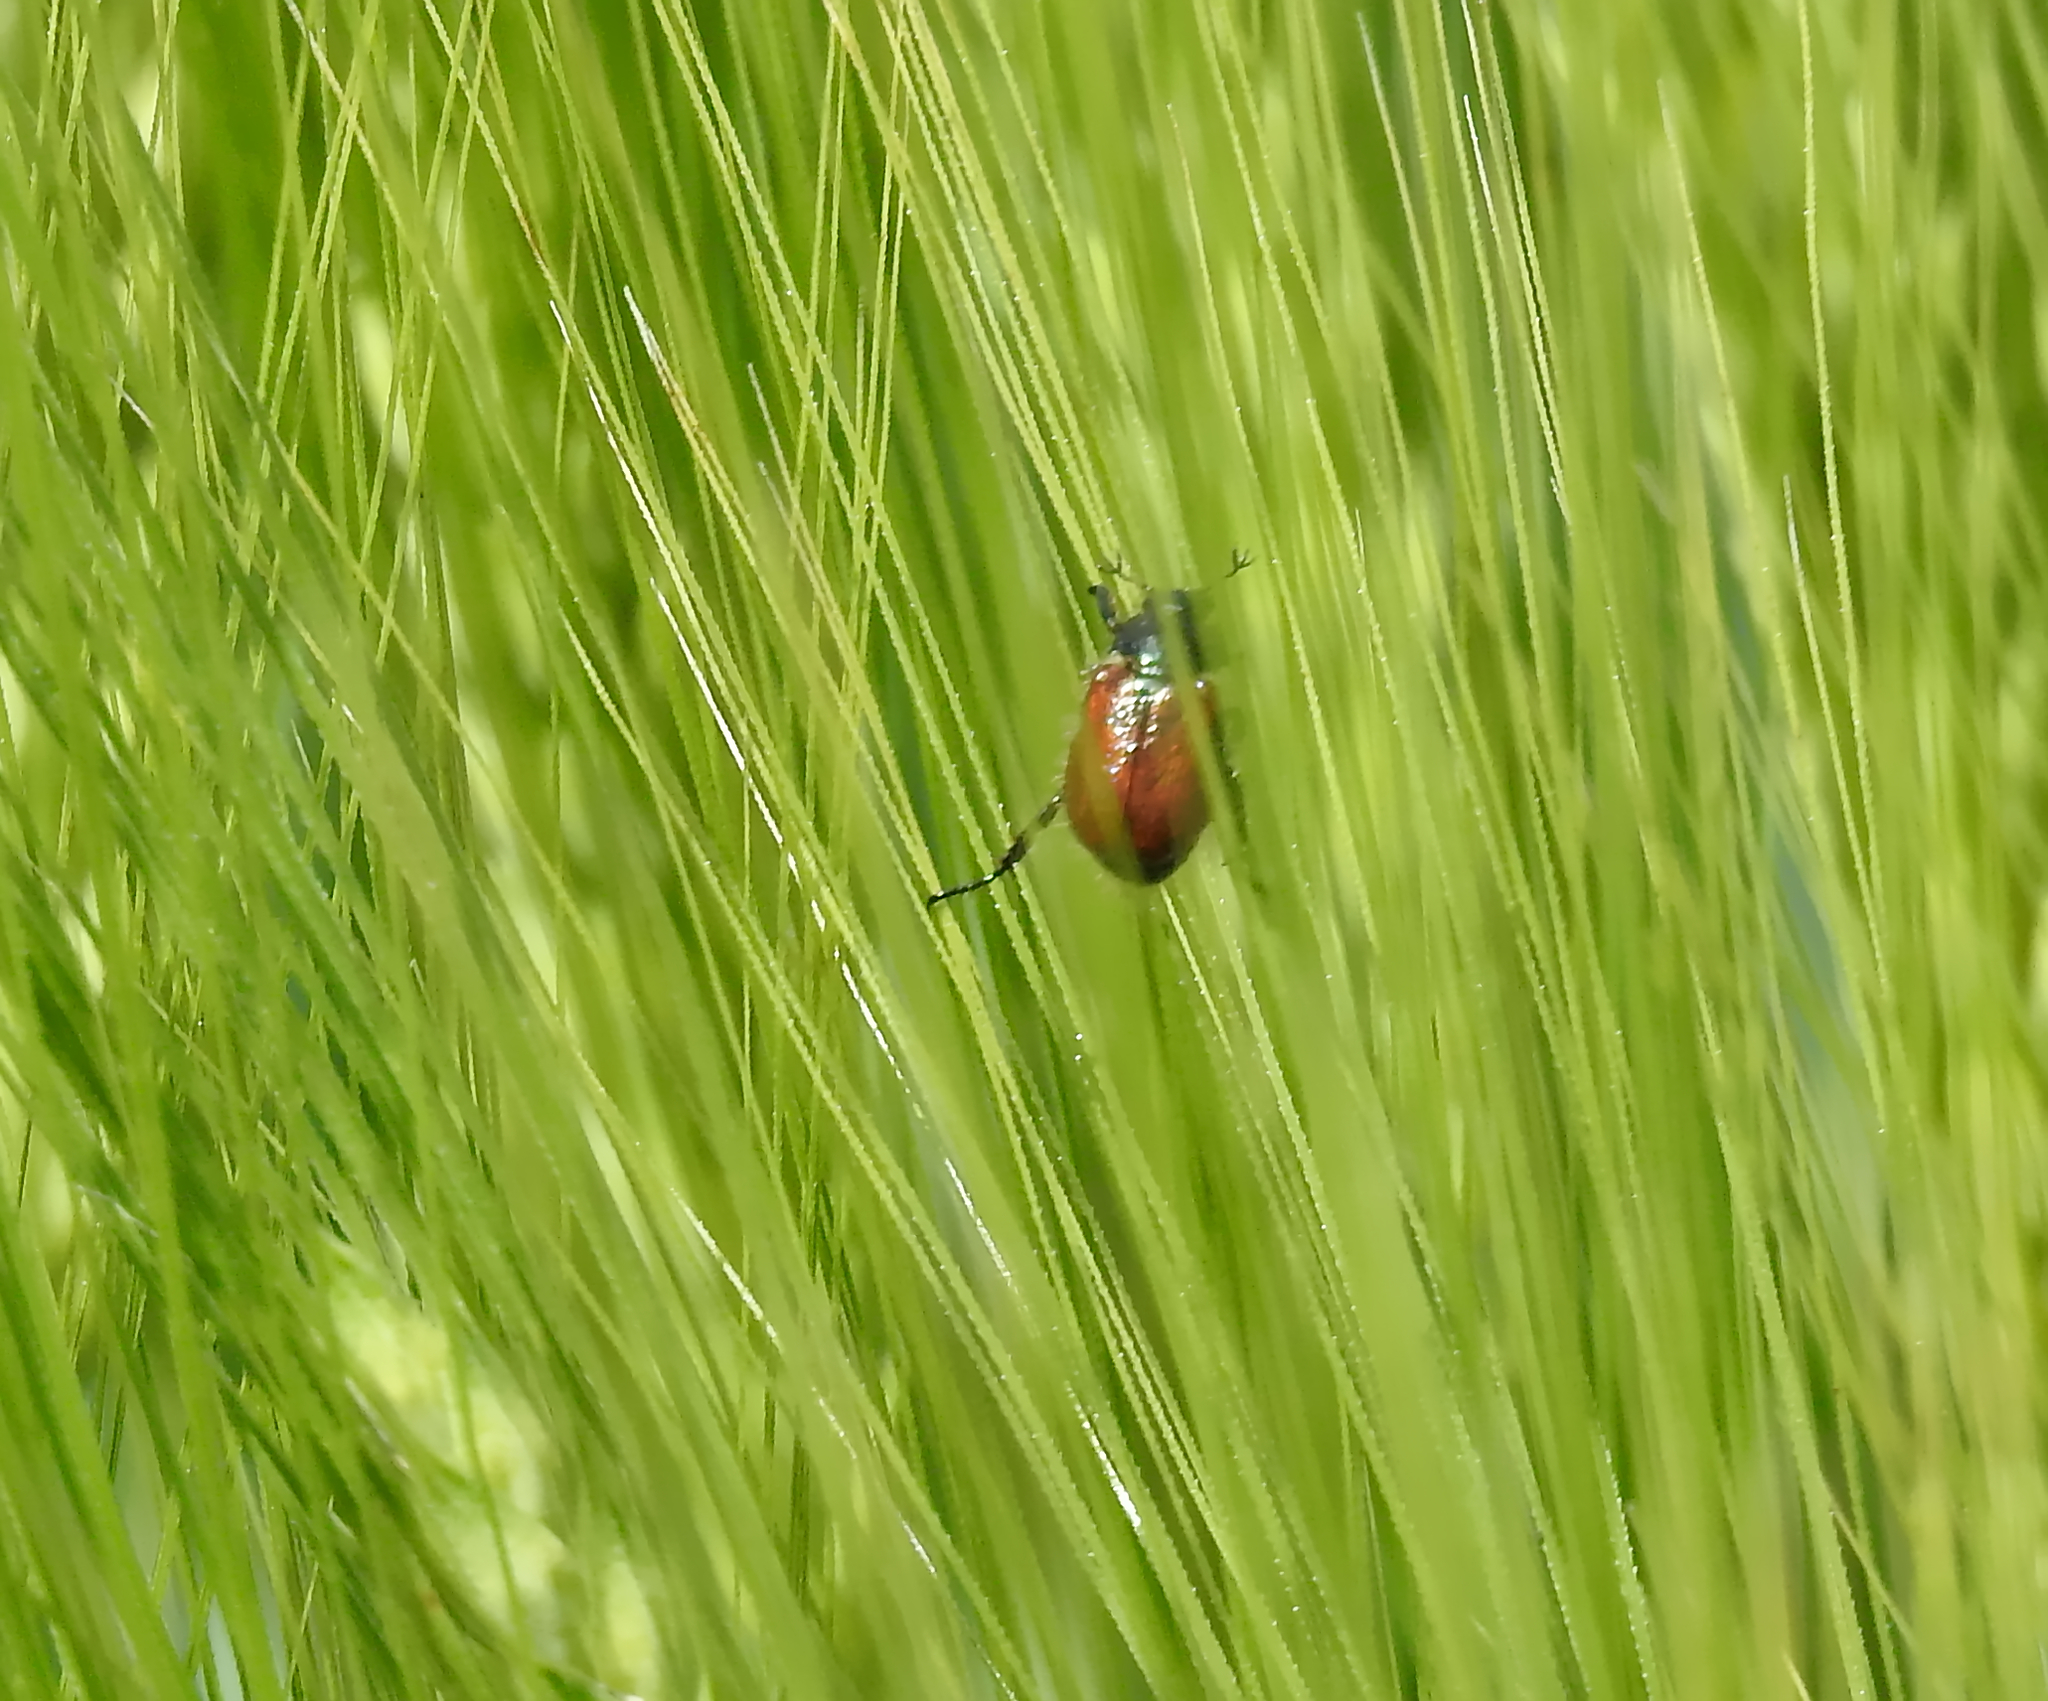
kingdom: Animalia
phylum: Arthropoda
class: Insecta
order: Coleoptera
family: Scarabaeidae
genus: Phyllopertha
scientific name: Phyllopertha horticola
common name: Garden chafer
